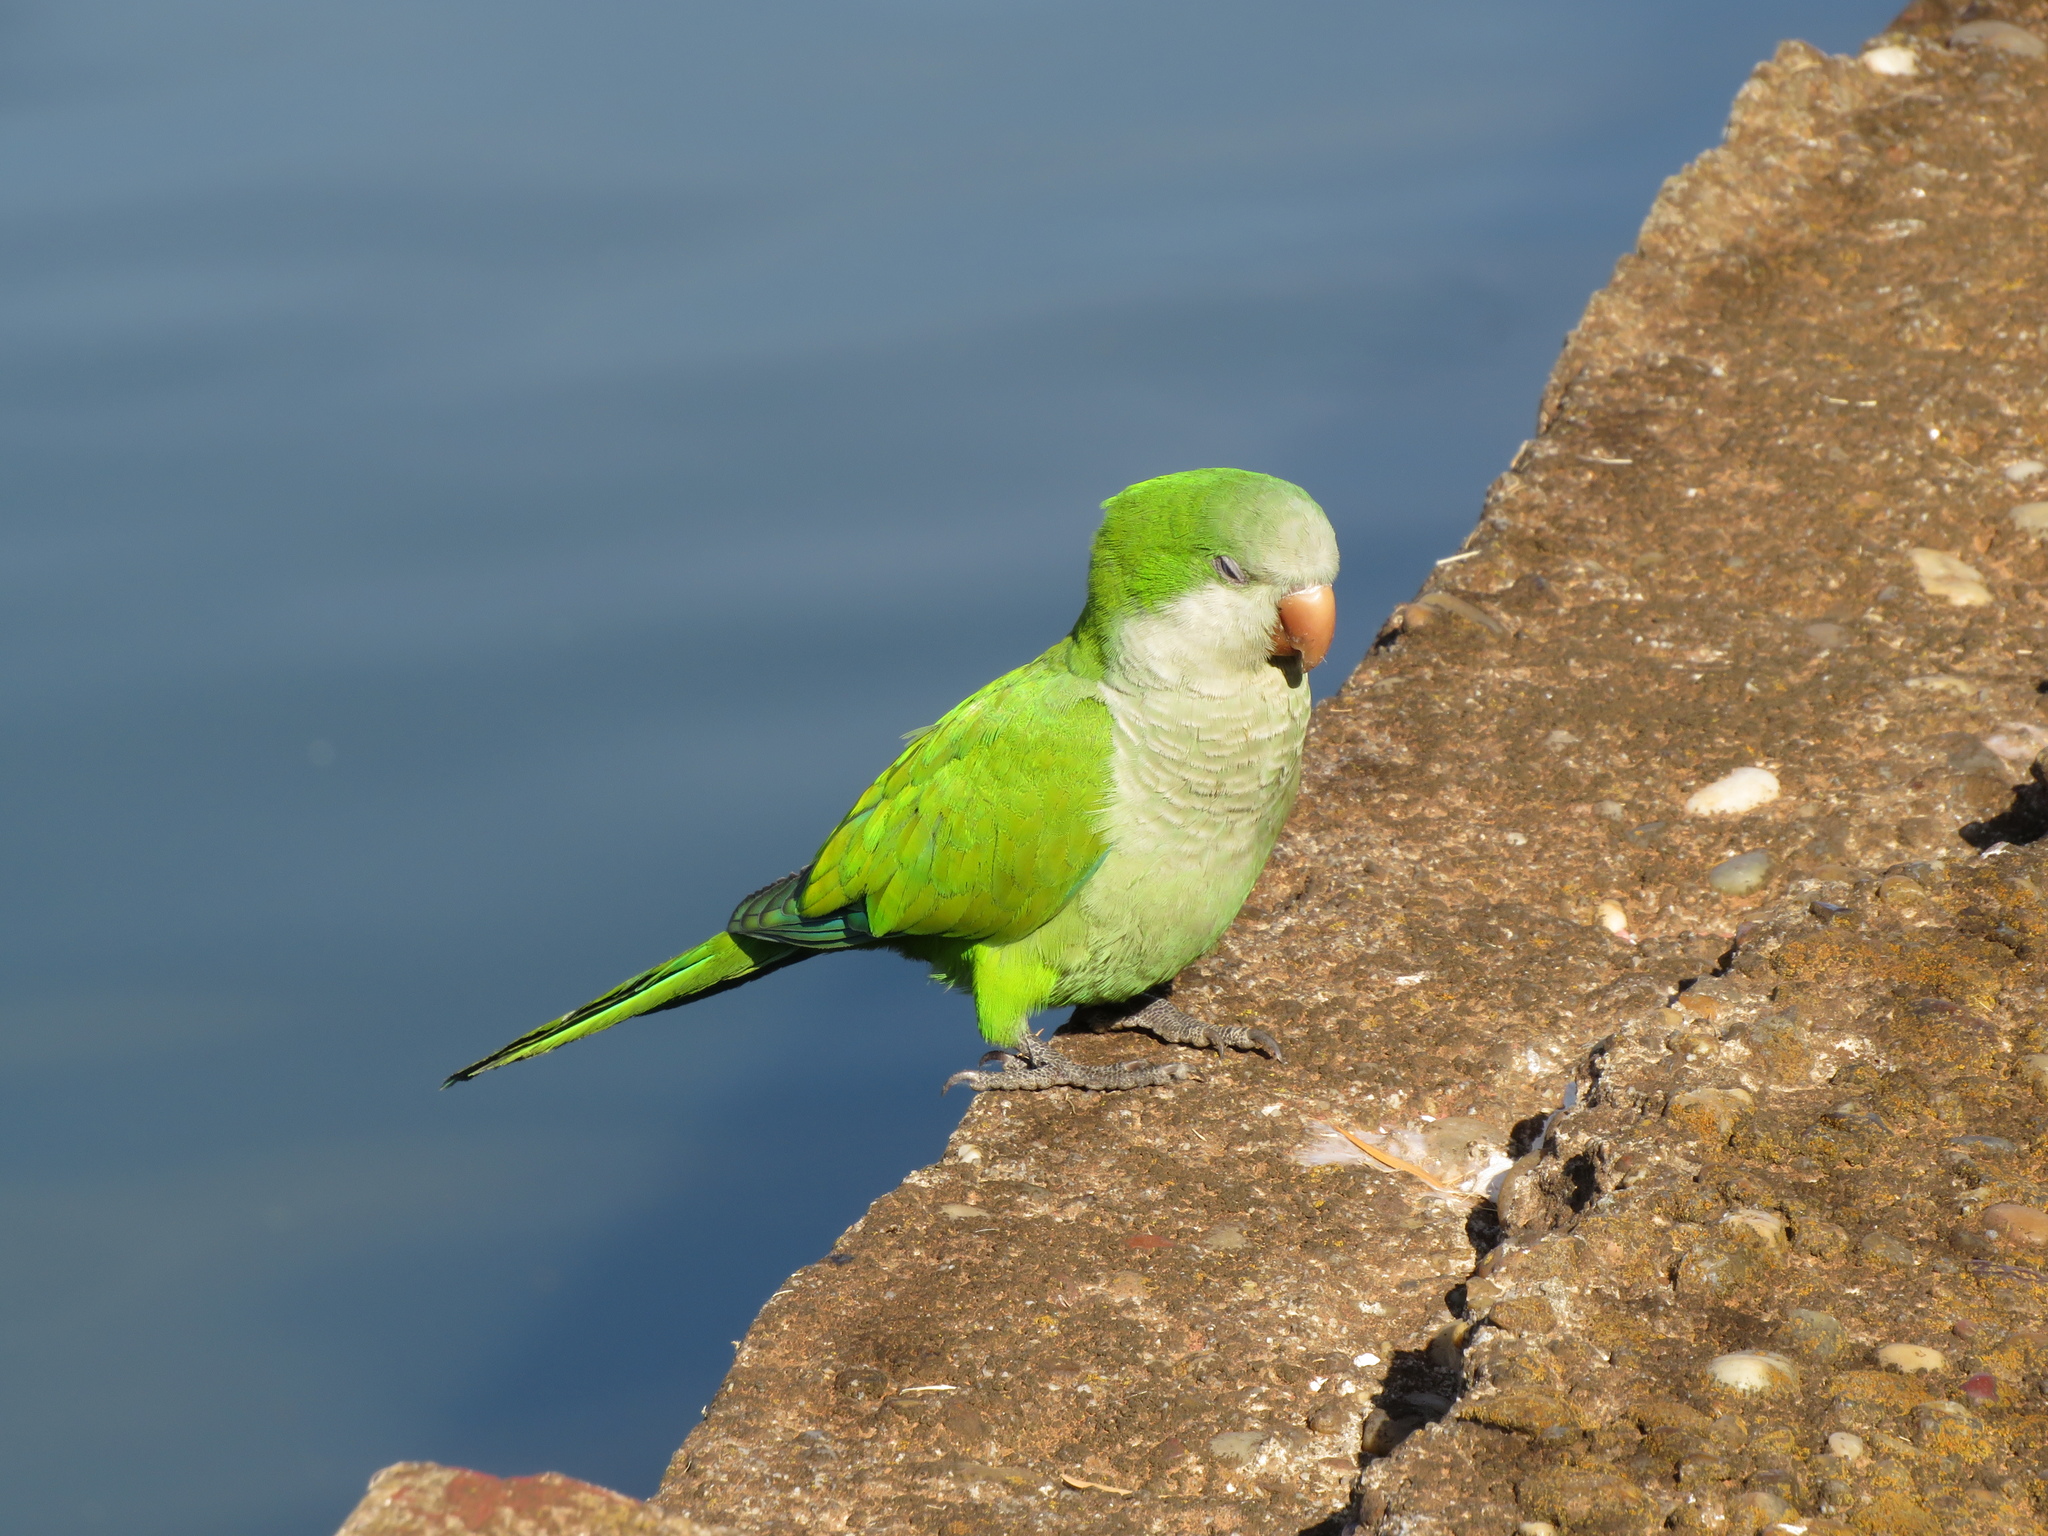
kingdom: Animalia
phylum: Chordata
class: Aves
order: Psittaciformes
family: Psittacidae
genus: Myiopsitta
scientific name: Myiopsitta monachus
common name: Monk parakeet
